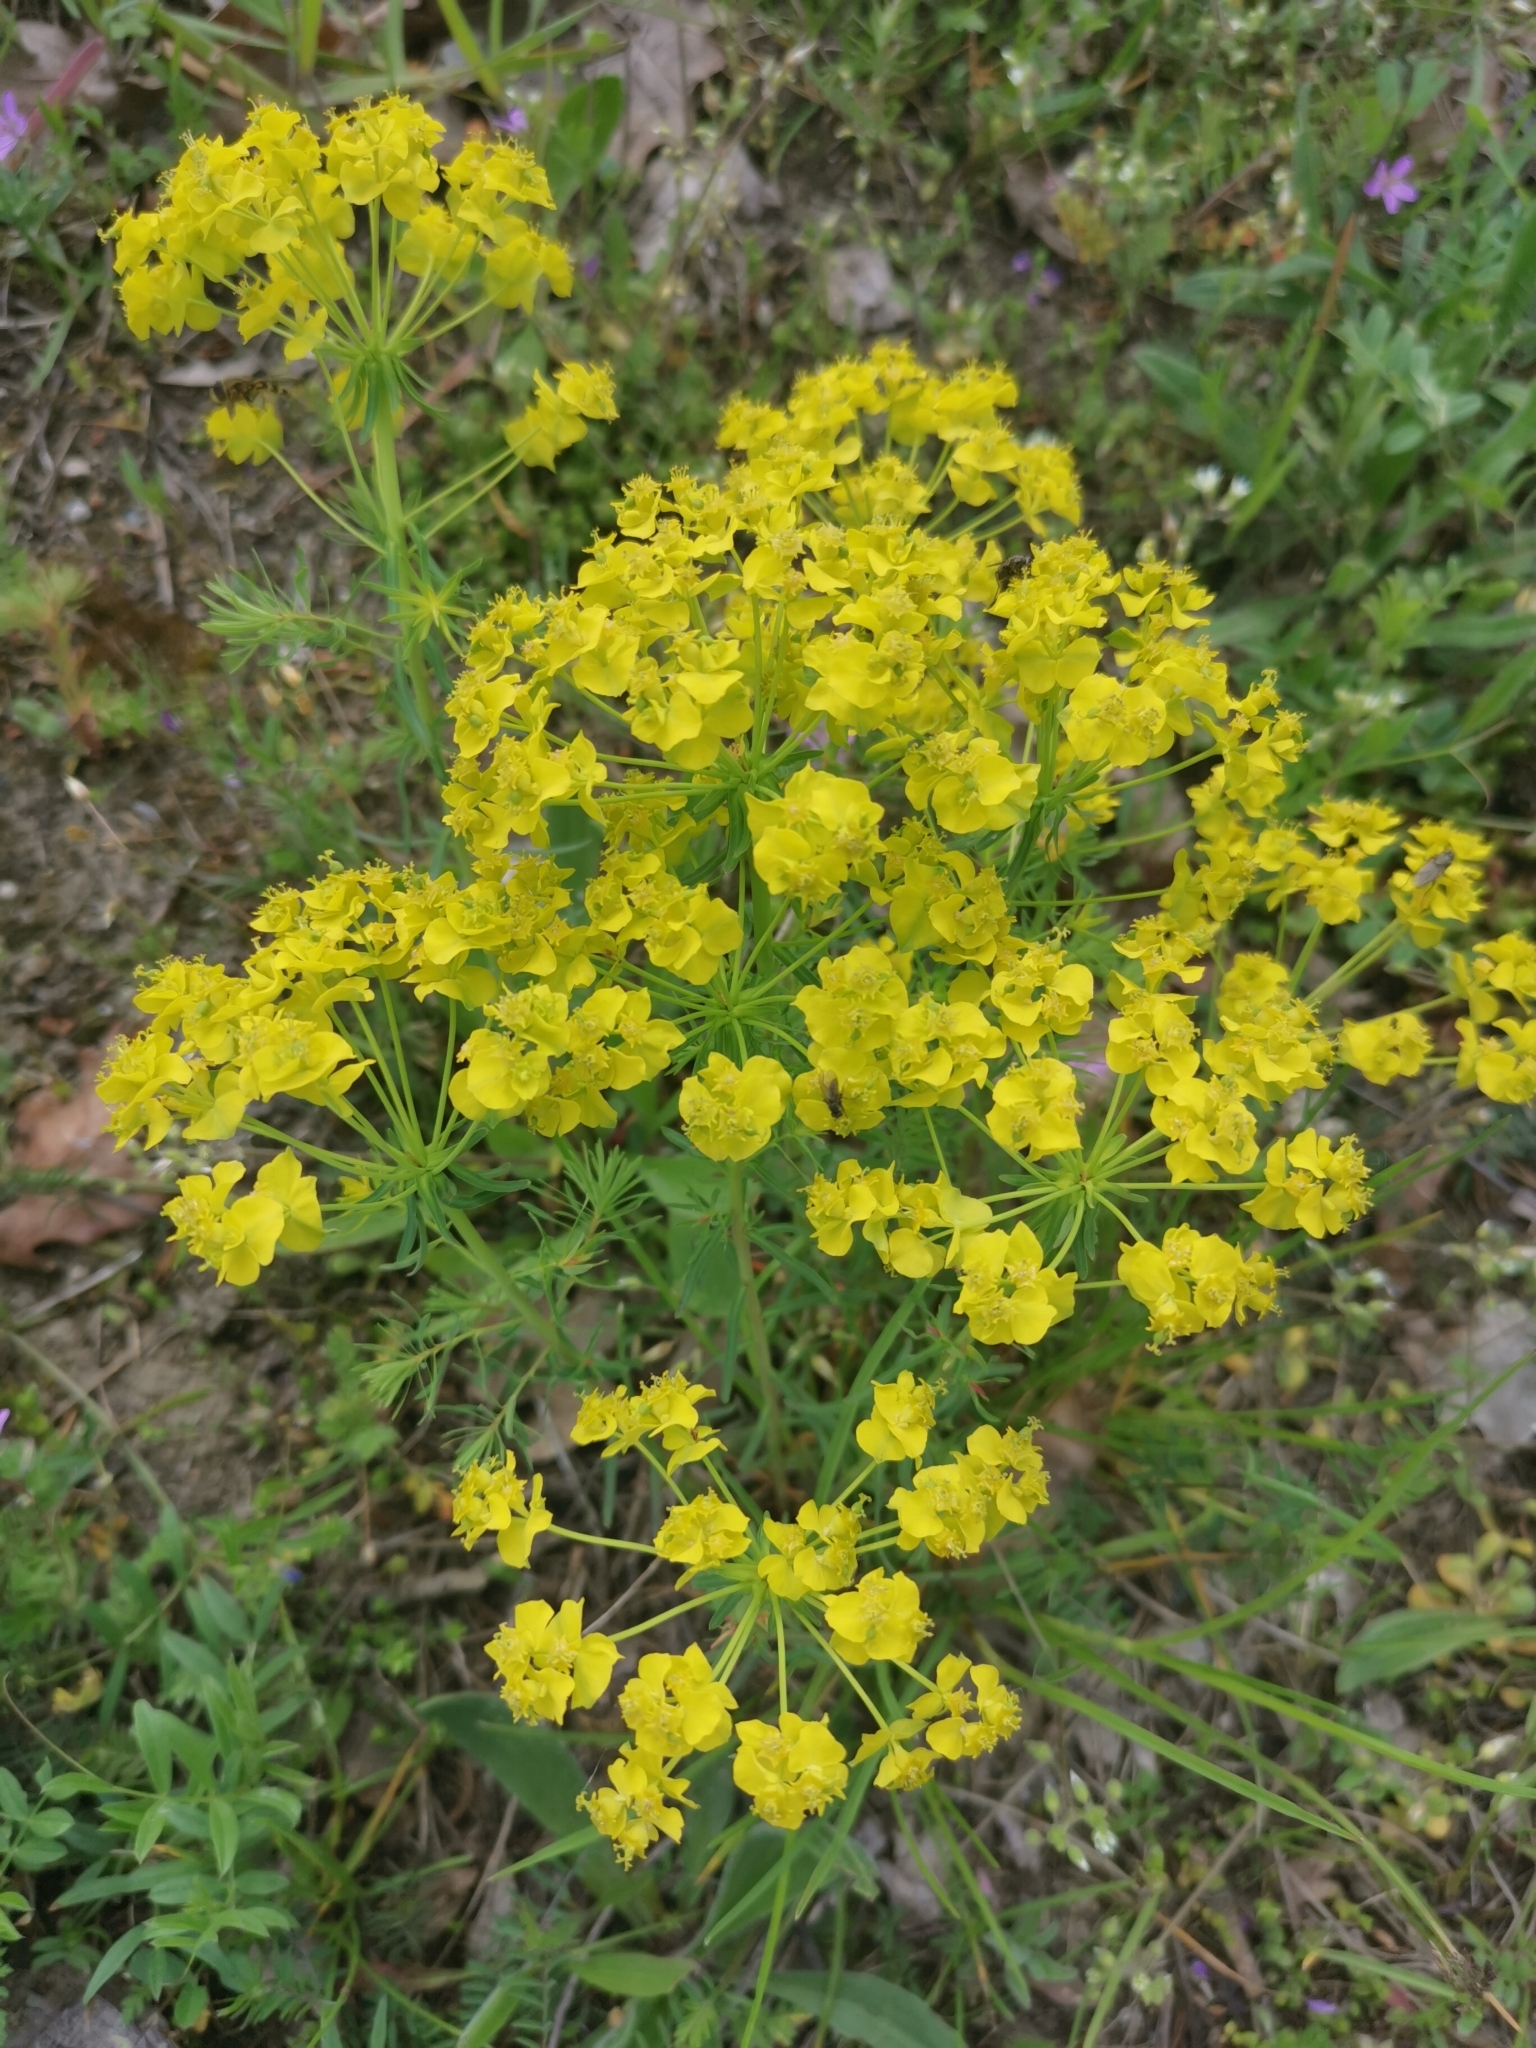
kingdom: Plantae
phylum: Tracheophyta
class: Magnoliopsida
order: Malpighiales
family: Euphorbiaceae
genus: Euphorbia
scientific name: Euphorbia cyparissias
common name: Cypress spurge
